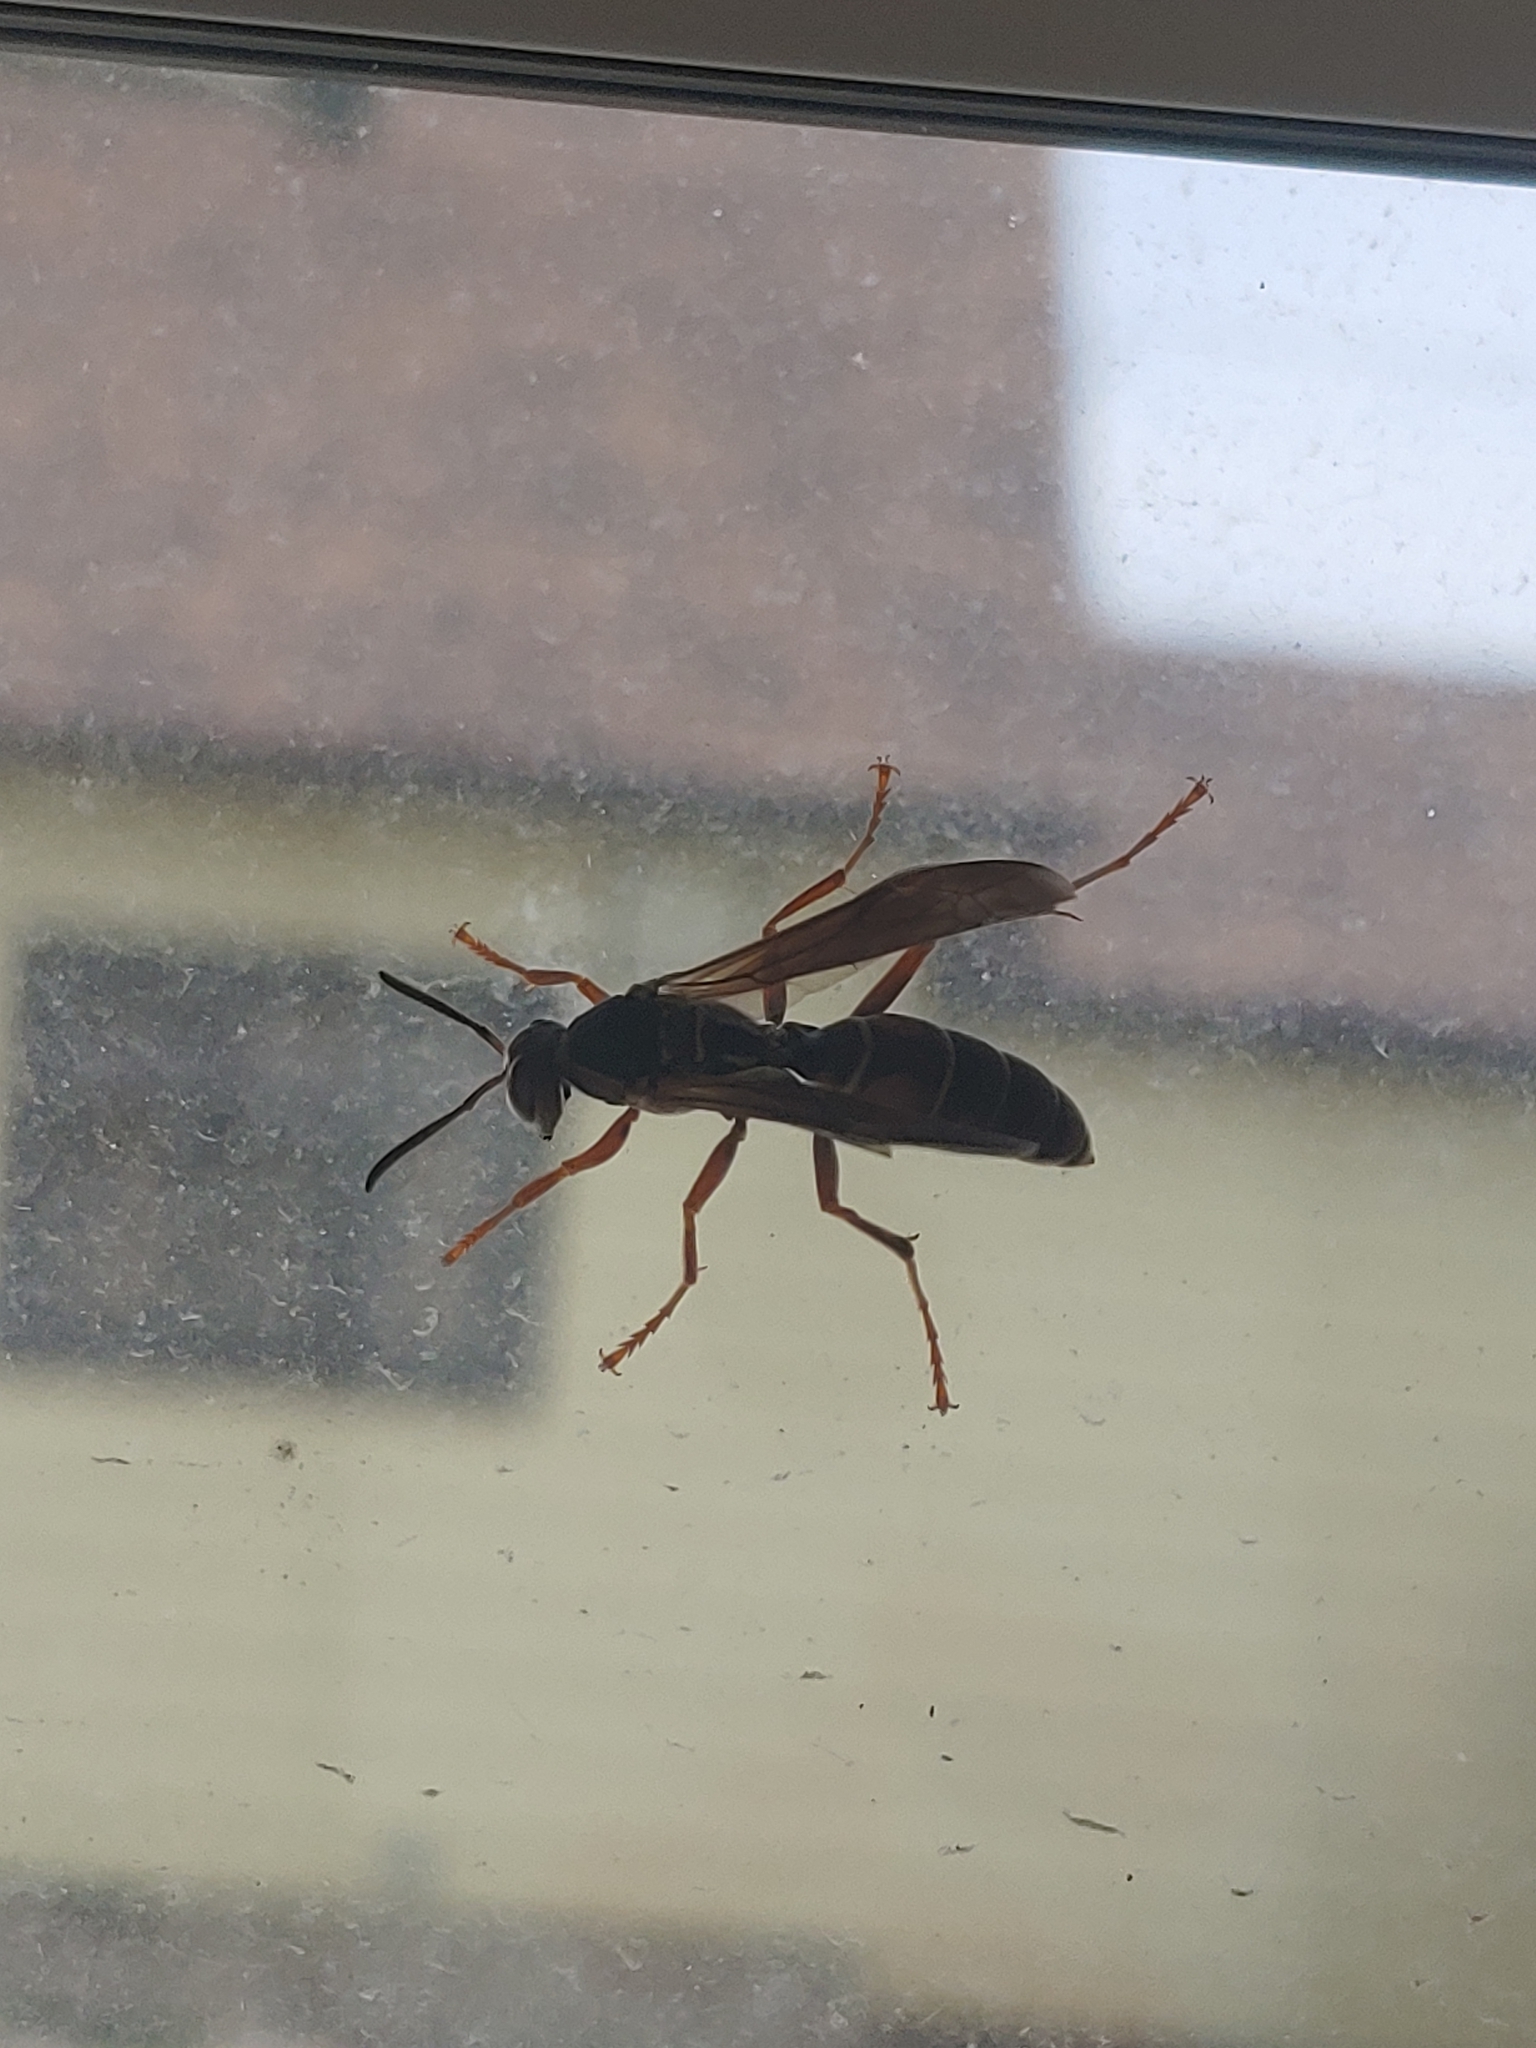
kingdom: Animalia
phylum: Arthropoda
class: Insecta
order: Hymenoptera
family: Eumenidae
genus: Polistes
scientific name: Polistes fuscatus
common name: Dark paper wasp
